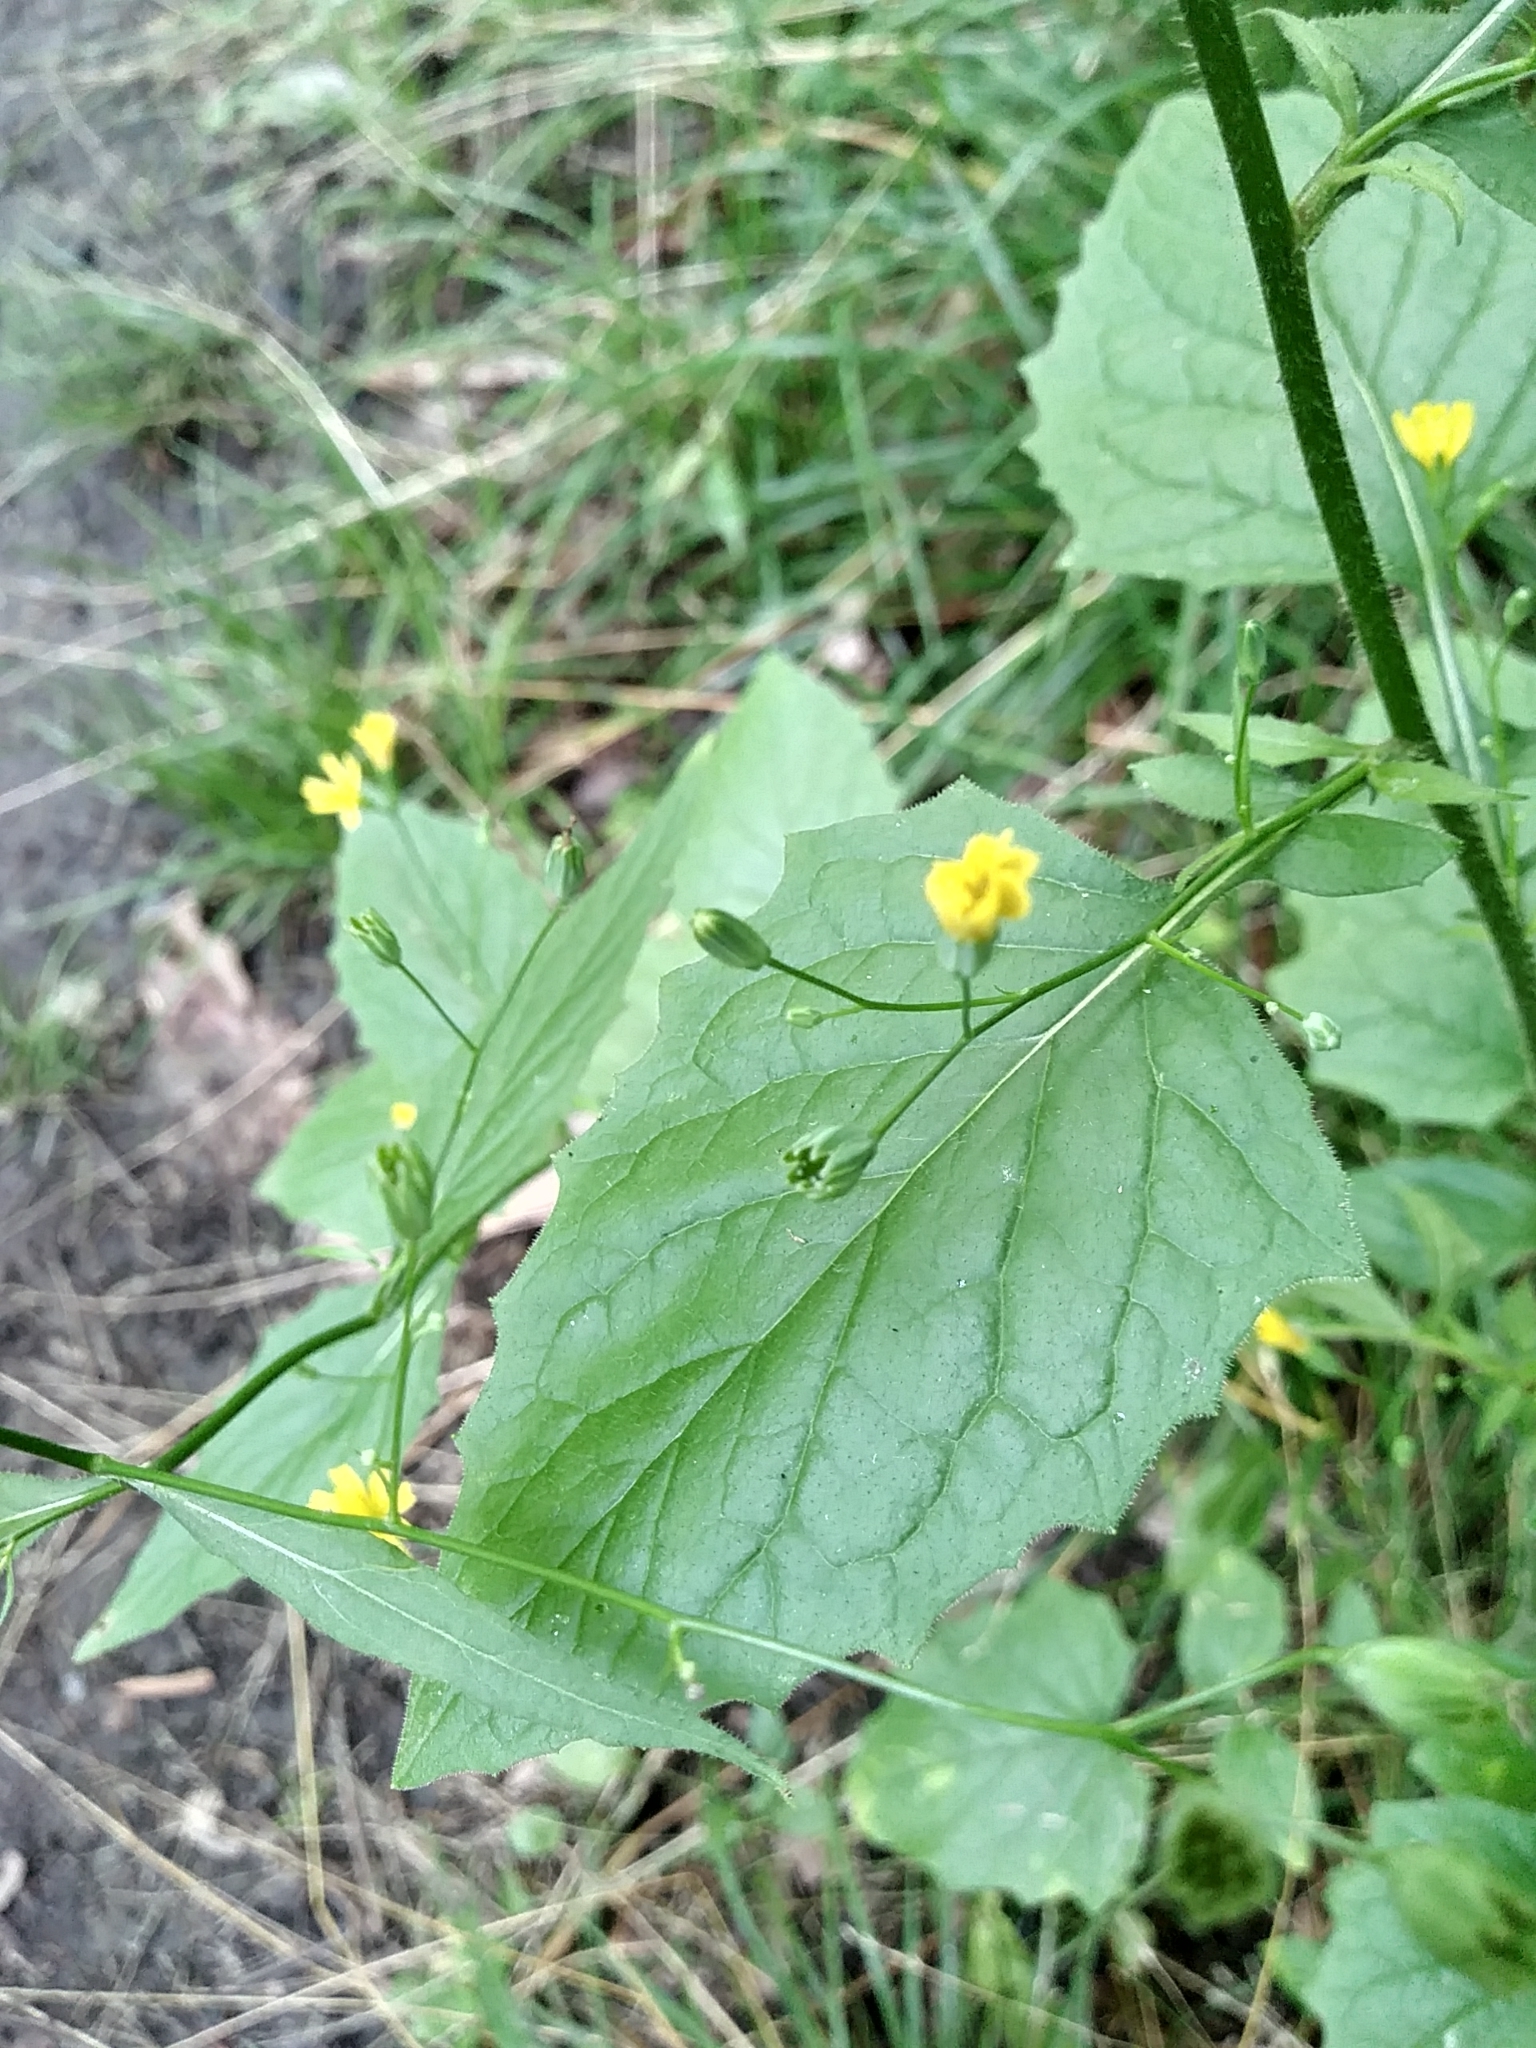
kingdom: Plantae
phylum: Tracheophyta
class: Magnoliopsida
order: Asterales
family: Asteraceae
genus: Lapsana
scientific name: Lapsana communis
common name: Nipplewort
